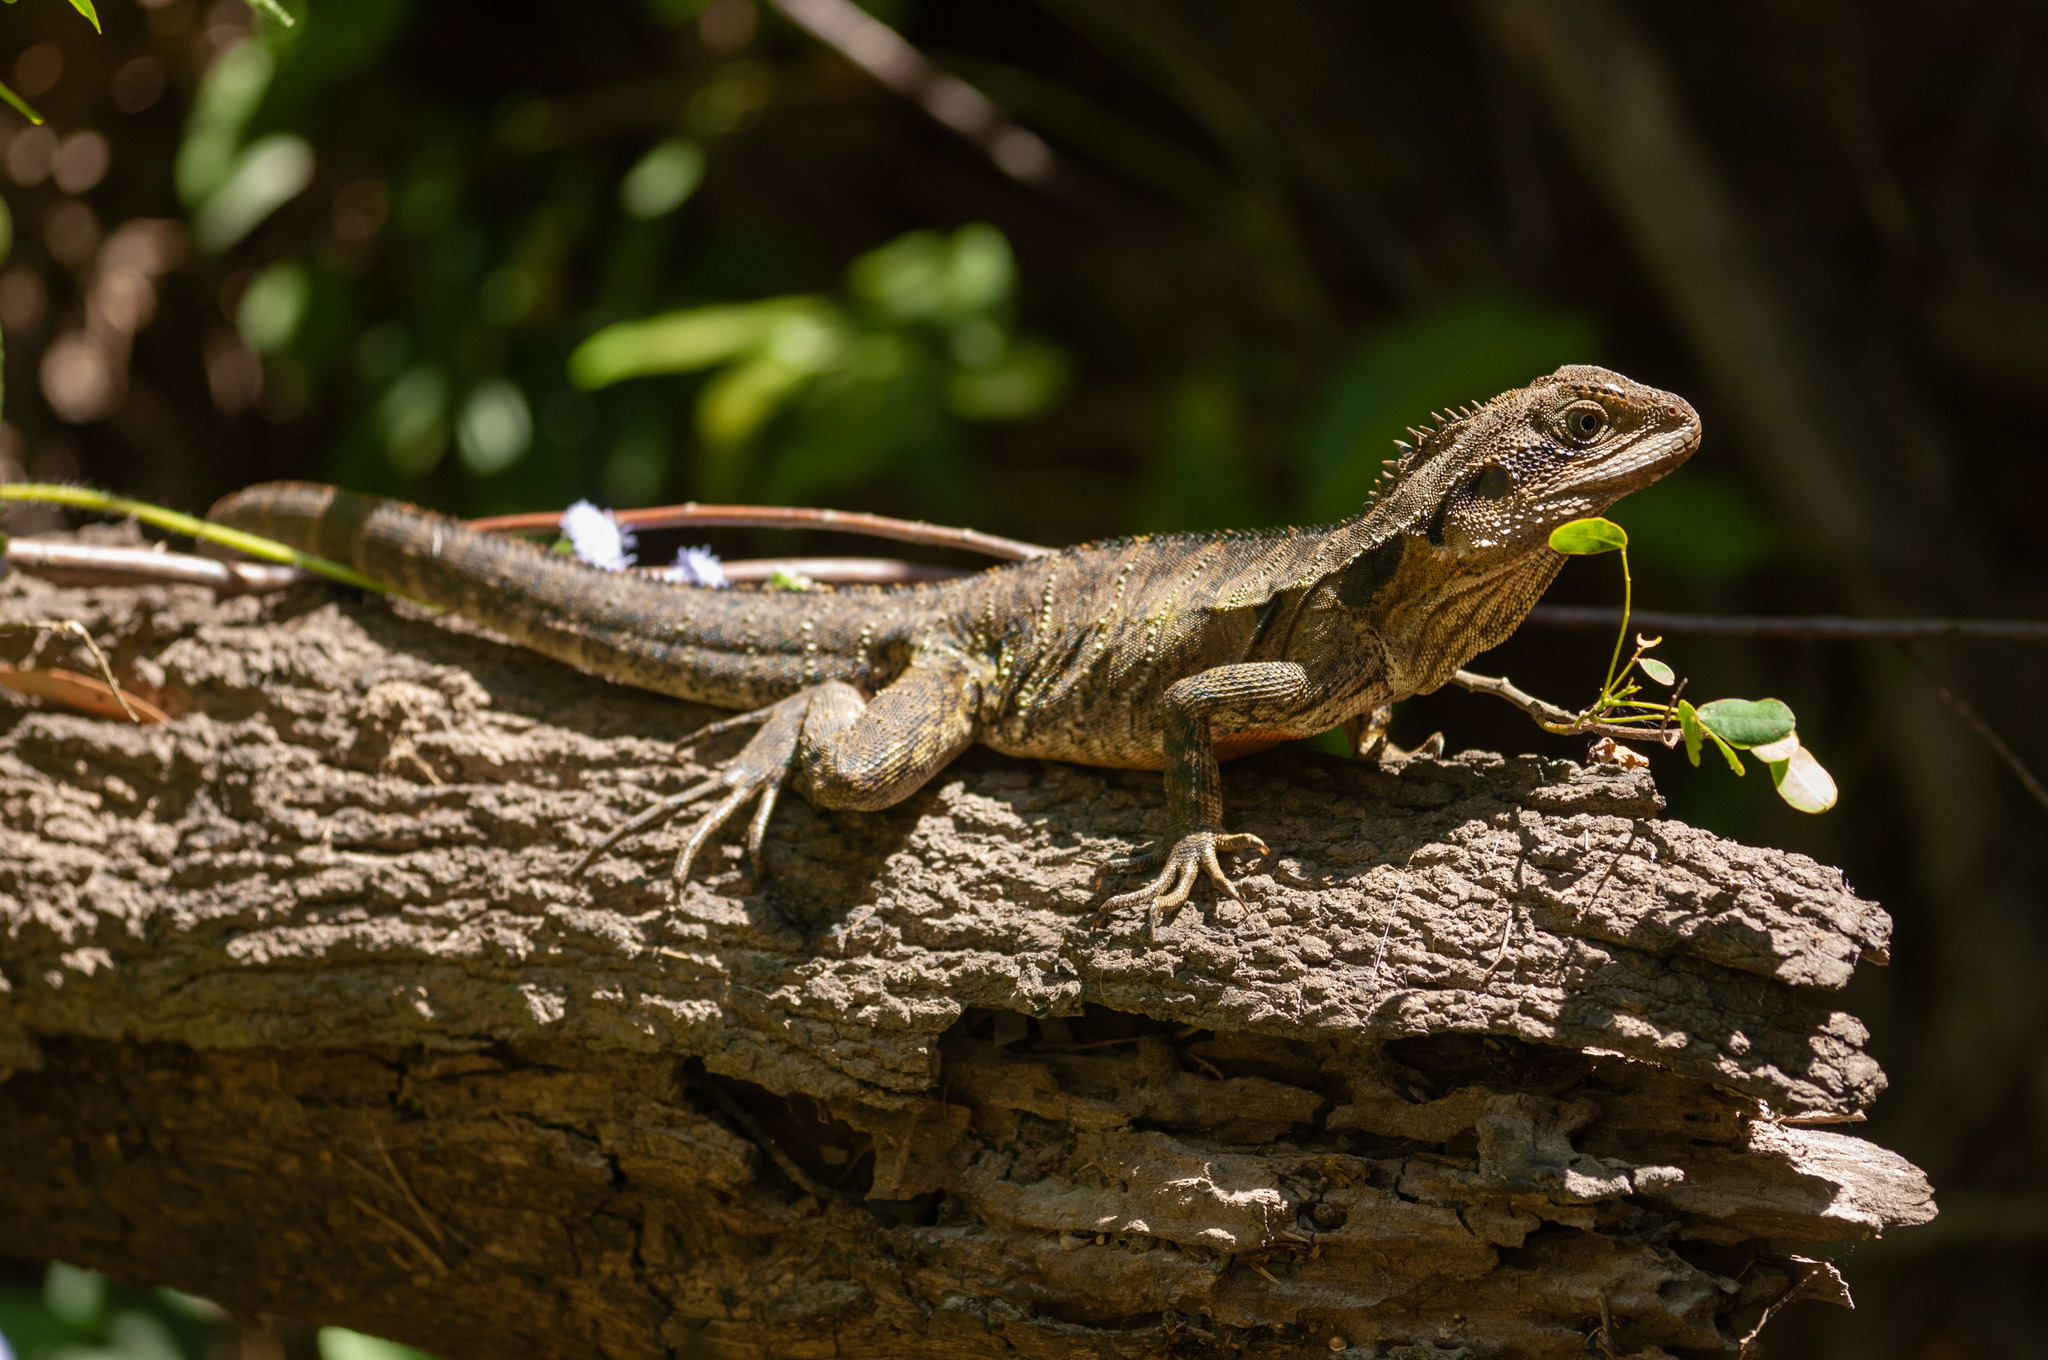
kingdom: Animalia
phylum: Chordata
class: Squamata
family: Agamidae
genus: Intellagama
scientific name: Intellagama lesueurii
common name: Eastern water dragon
